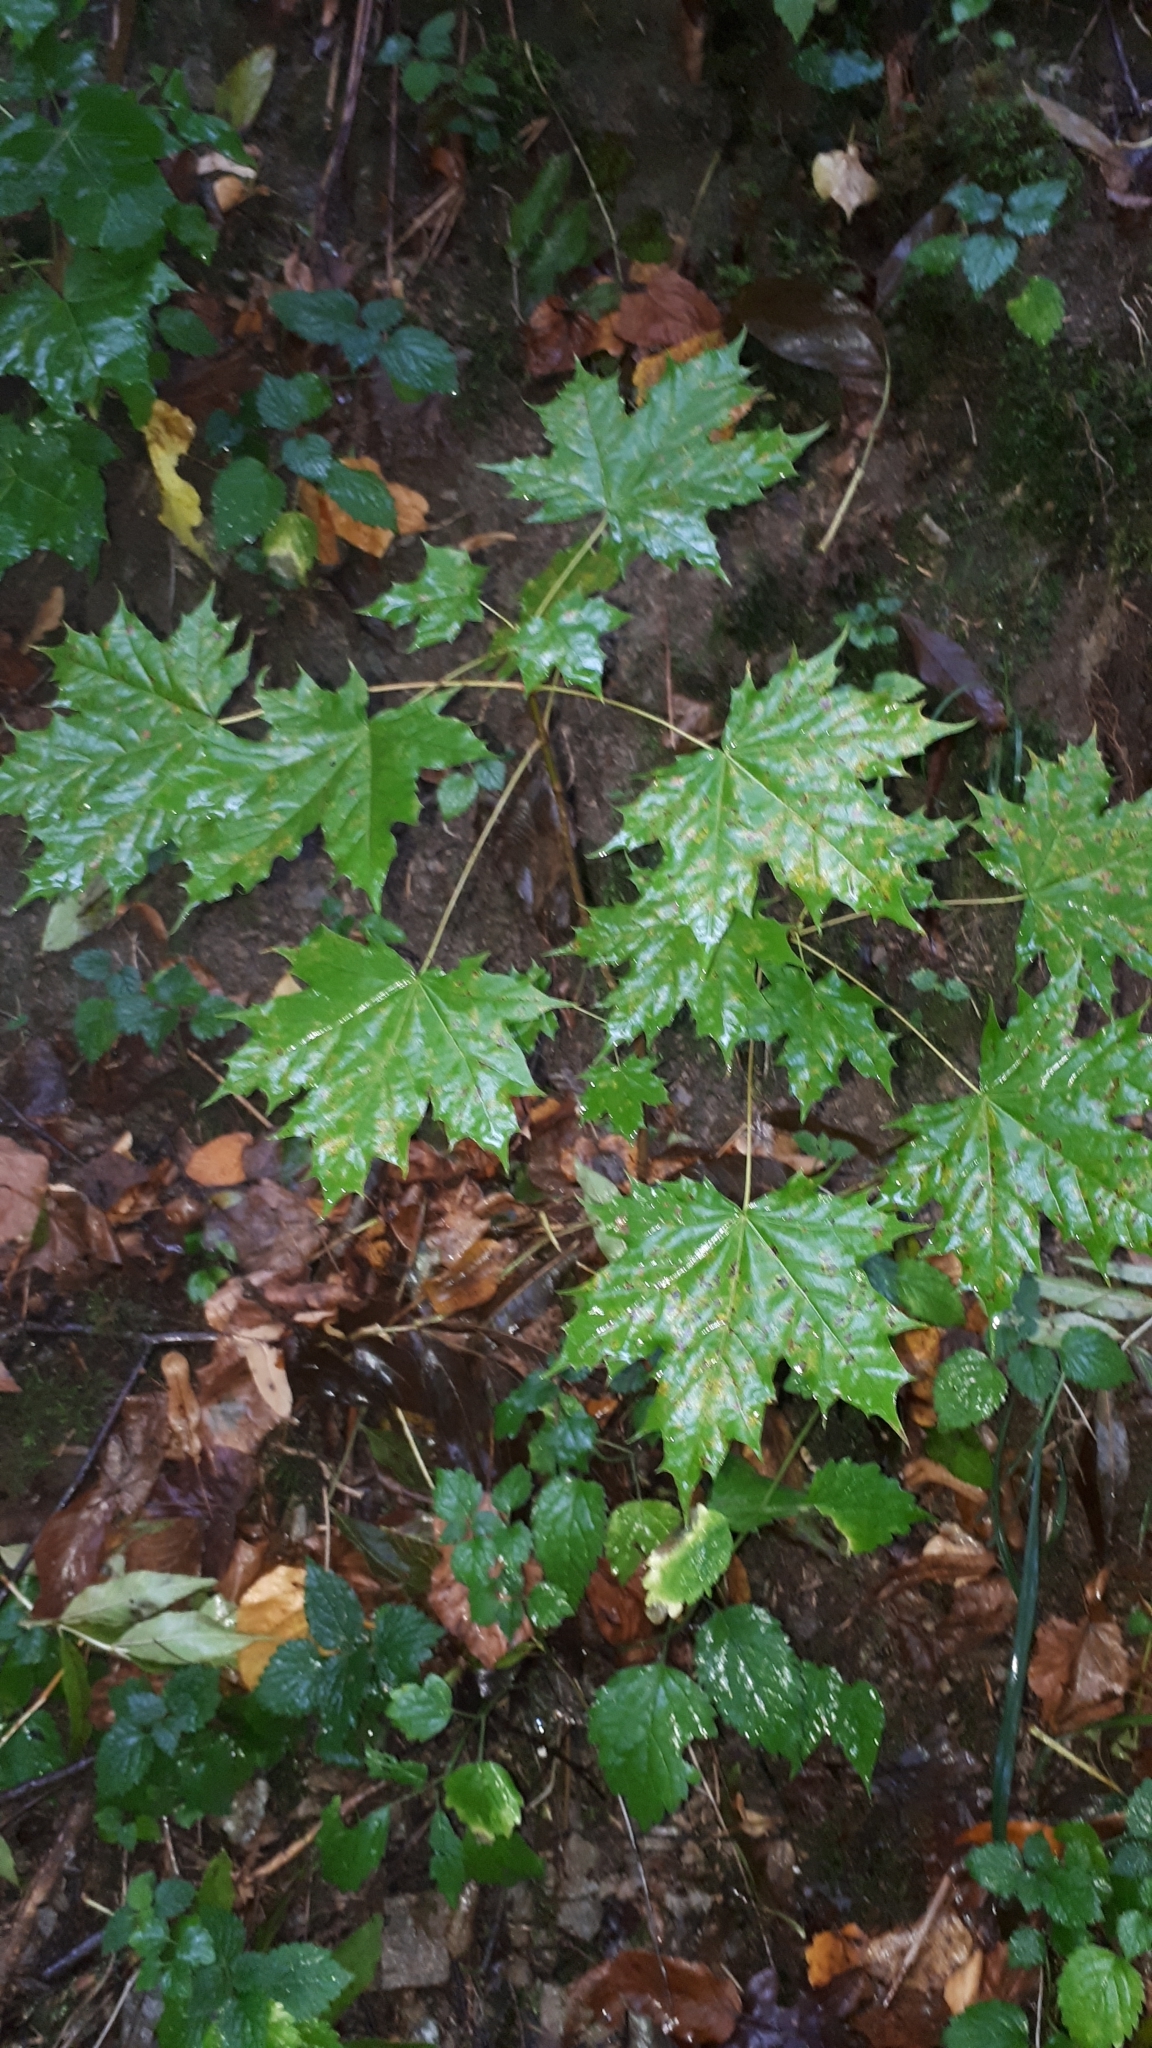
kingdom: Plantae
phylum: Tracheophyta
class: Magnoliopsida
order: Sapindales
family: Sapindaceae
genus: Acer
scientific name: Acer platanoides
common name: Norway maple
